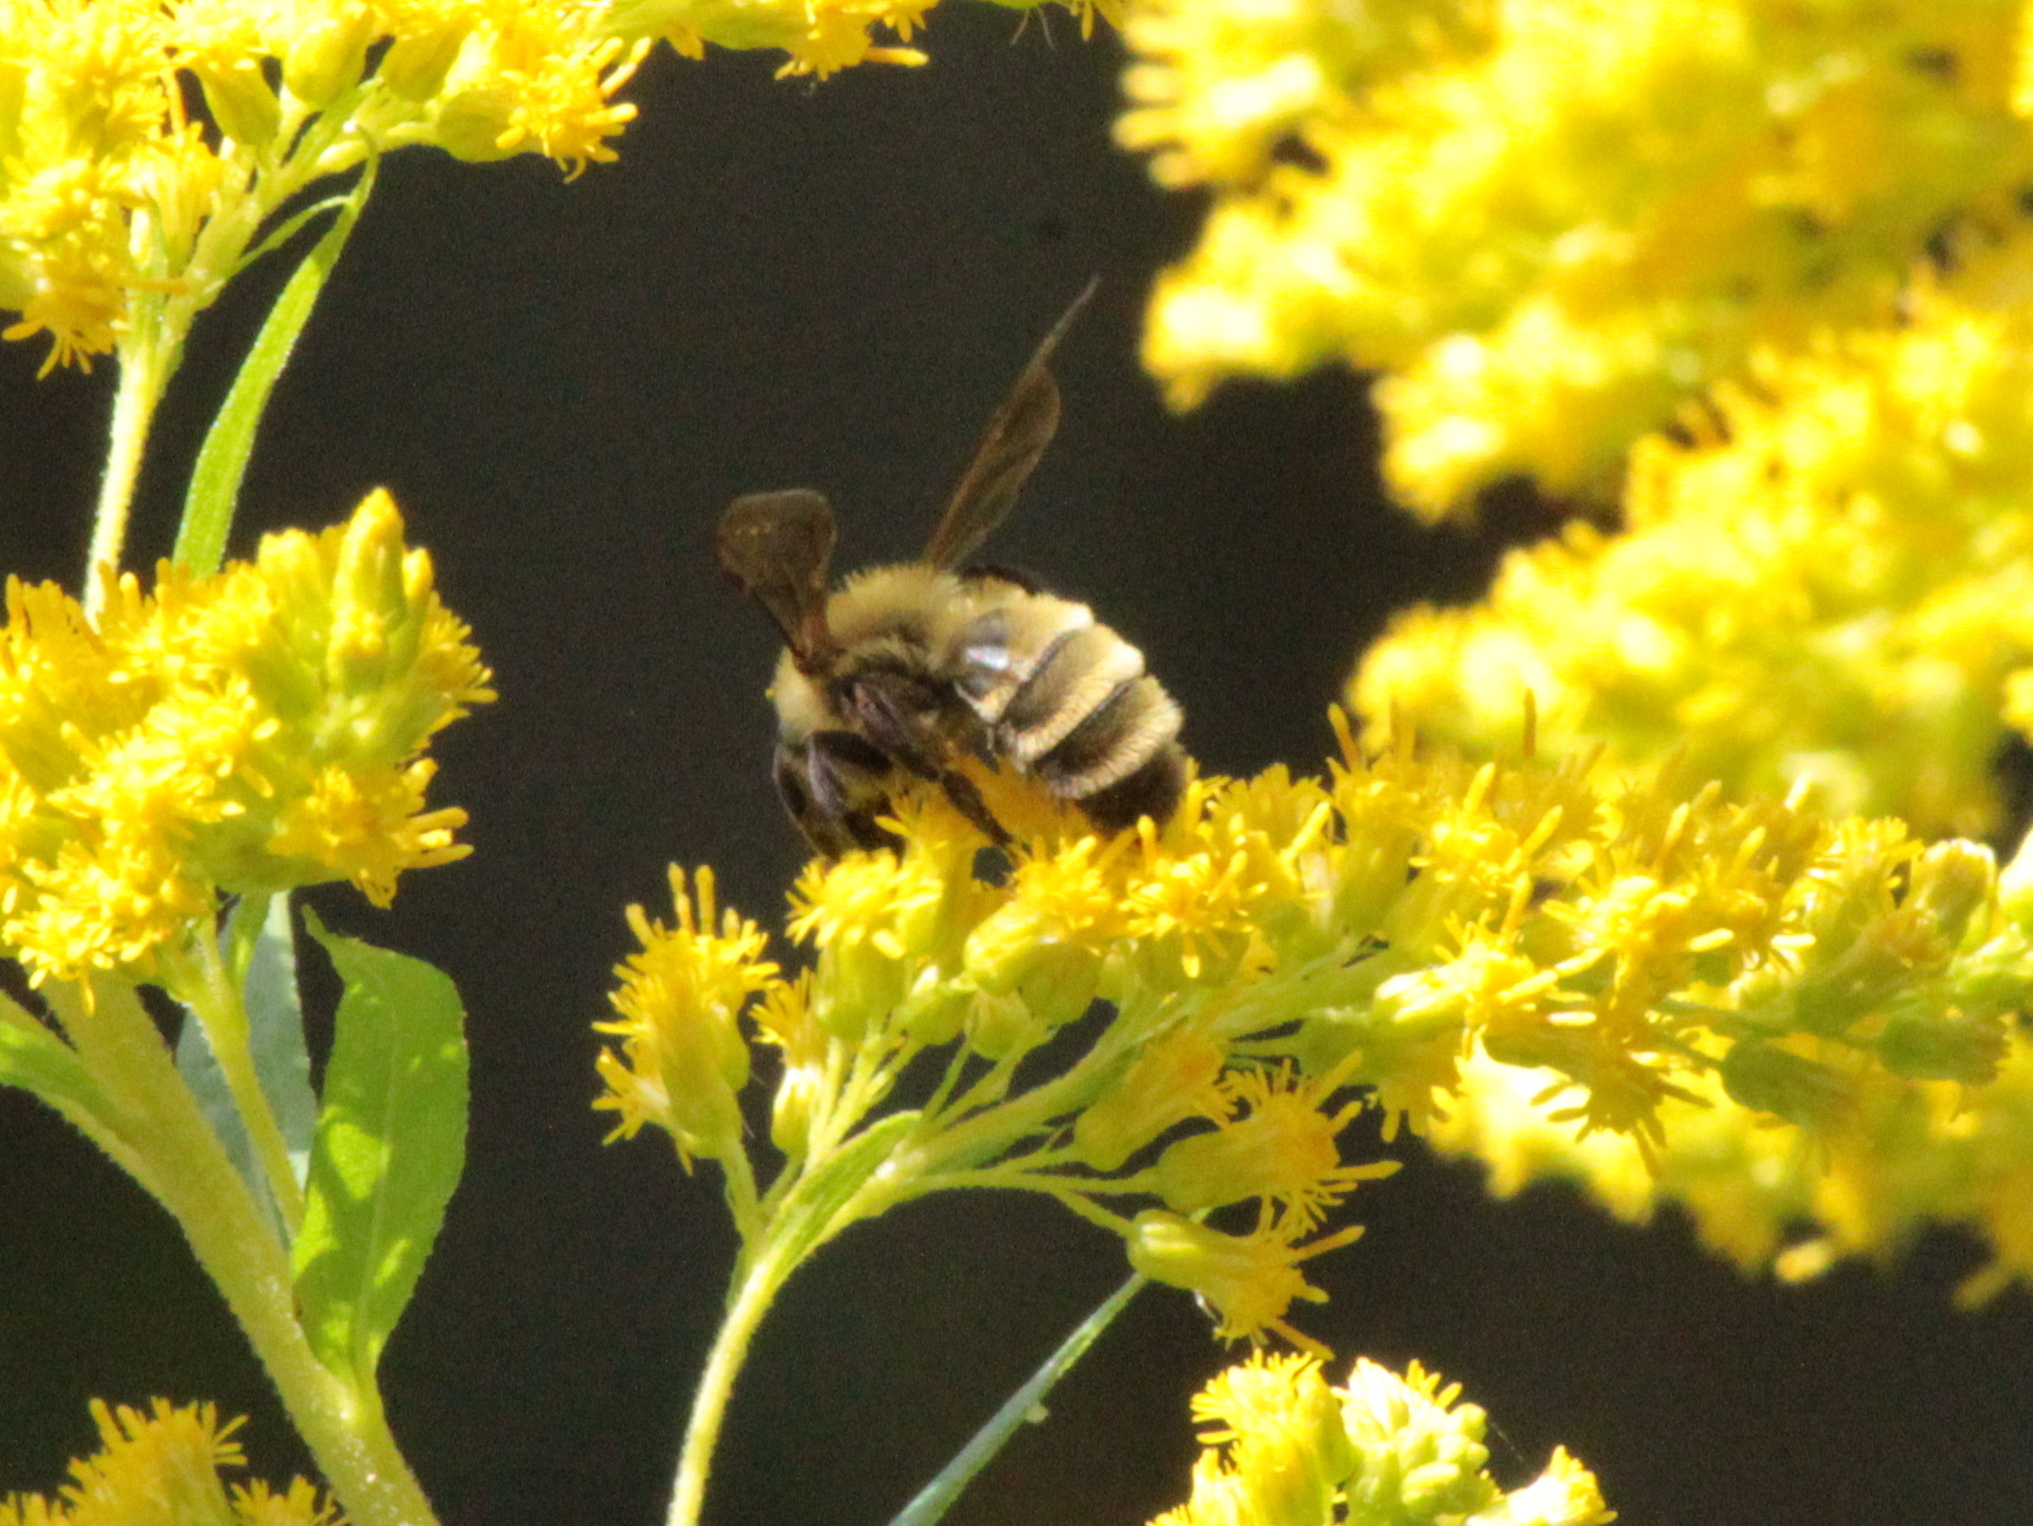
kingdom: Animalia
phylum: Arthropoda
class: Insecta
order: Hymenoptera
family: Andrenidae
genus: Andrena
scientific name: Andrena hirticincta
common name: Hairy-banded mining bee
